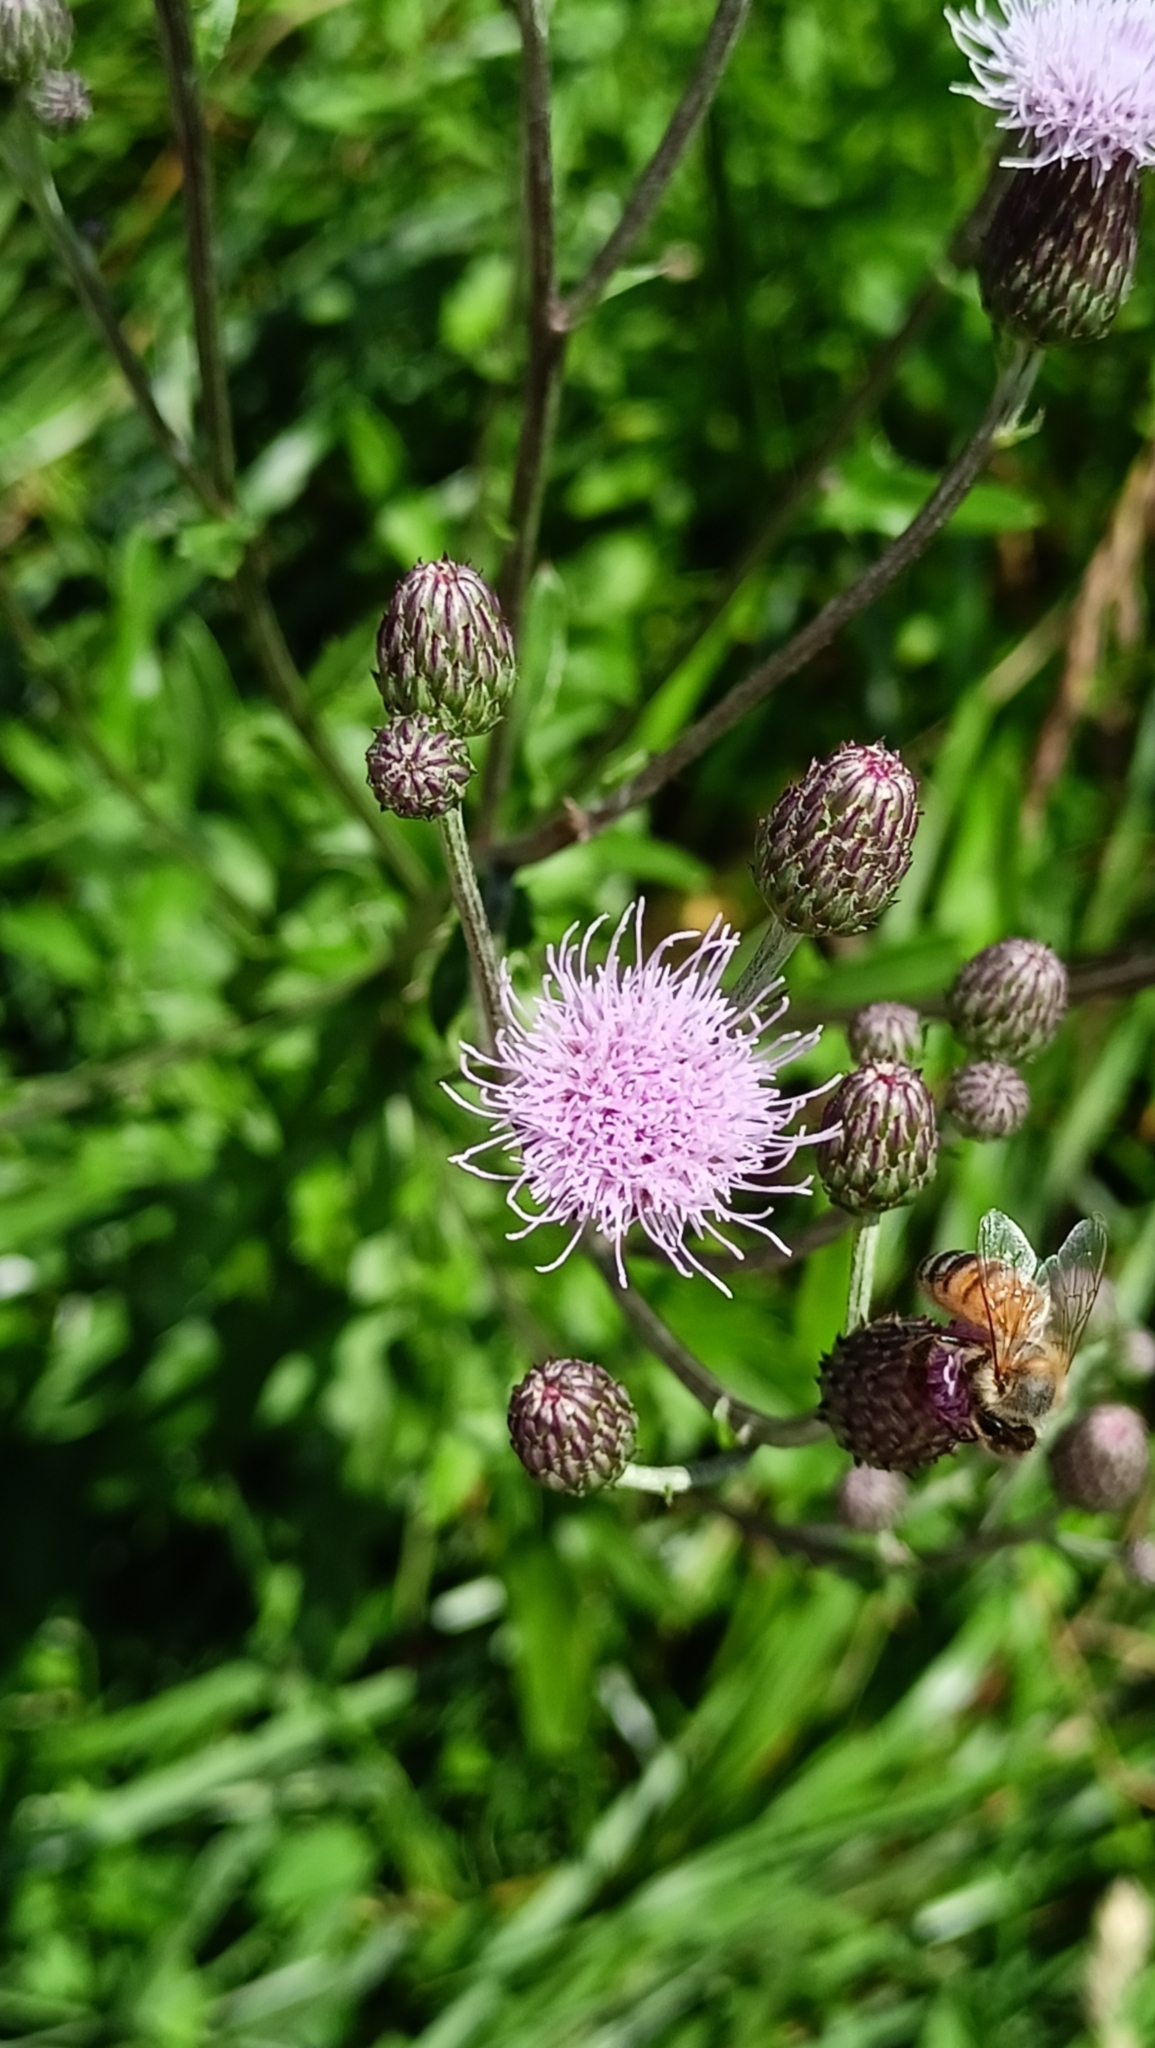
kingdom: Plantae
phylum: Tracheophyta
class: Magnoliopsida
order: Asterales
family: Asteraceae
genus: Cirsium
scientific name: Cirsium arvense
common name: Creeping thistle
